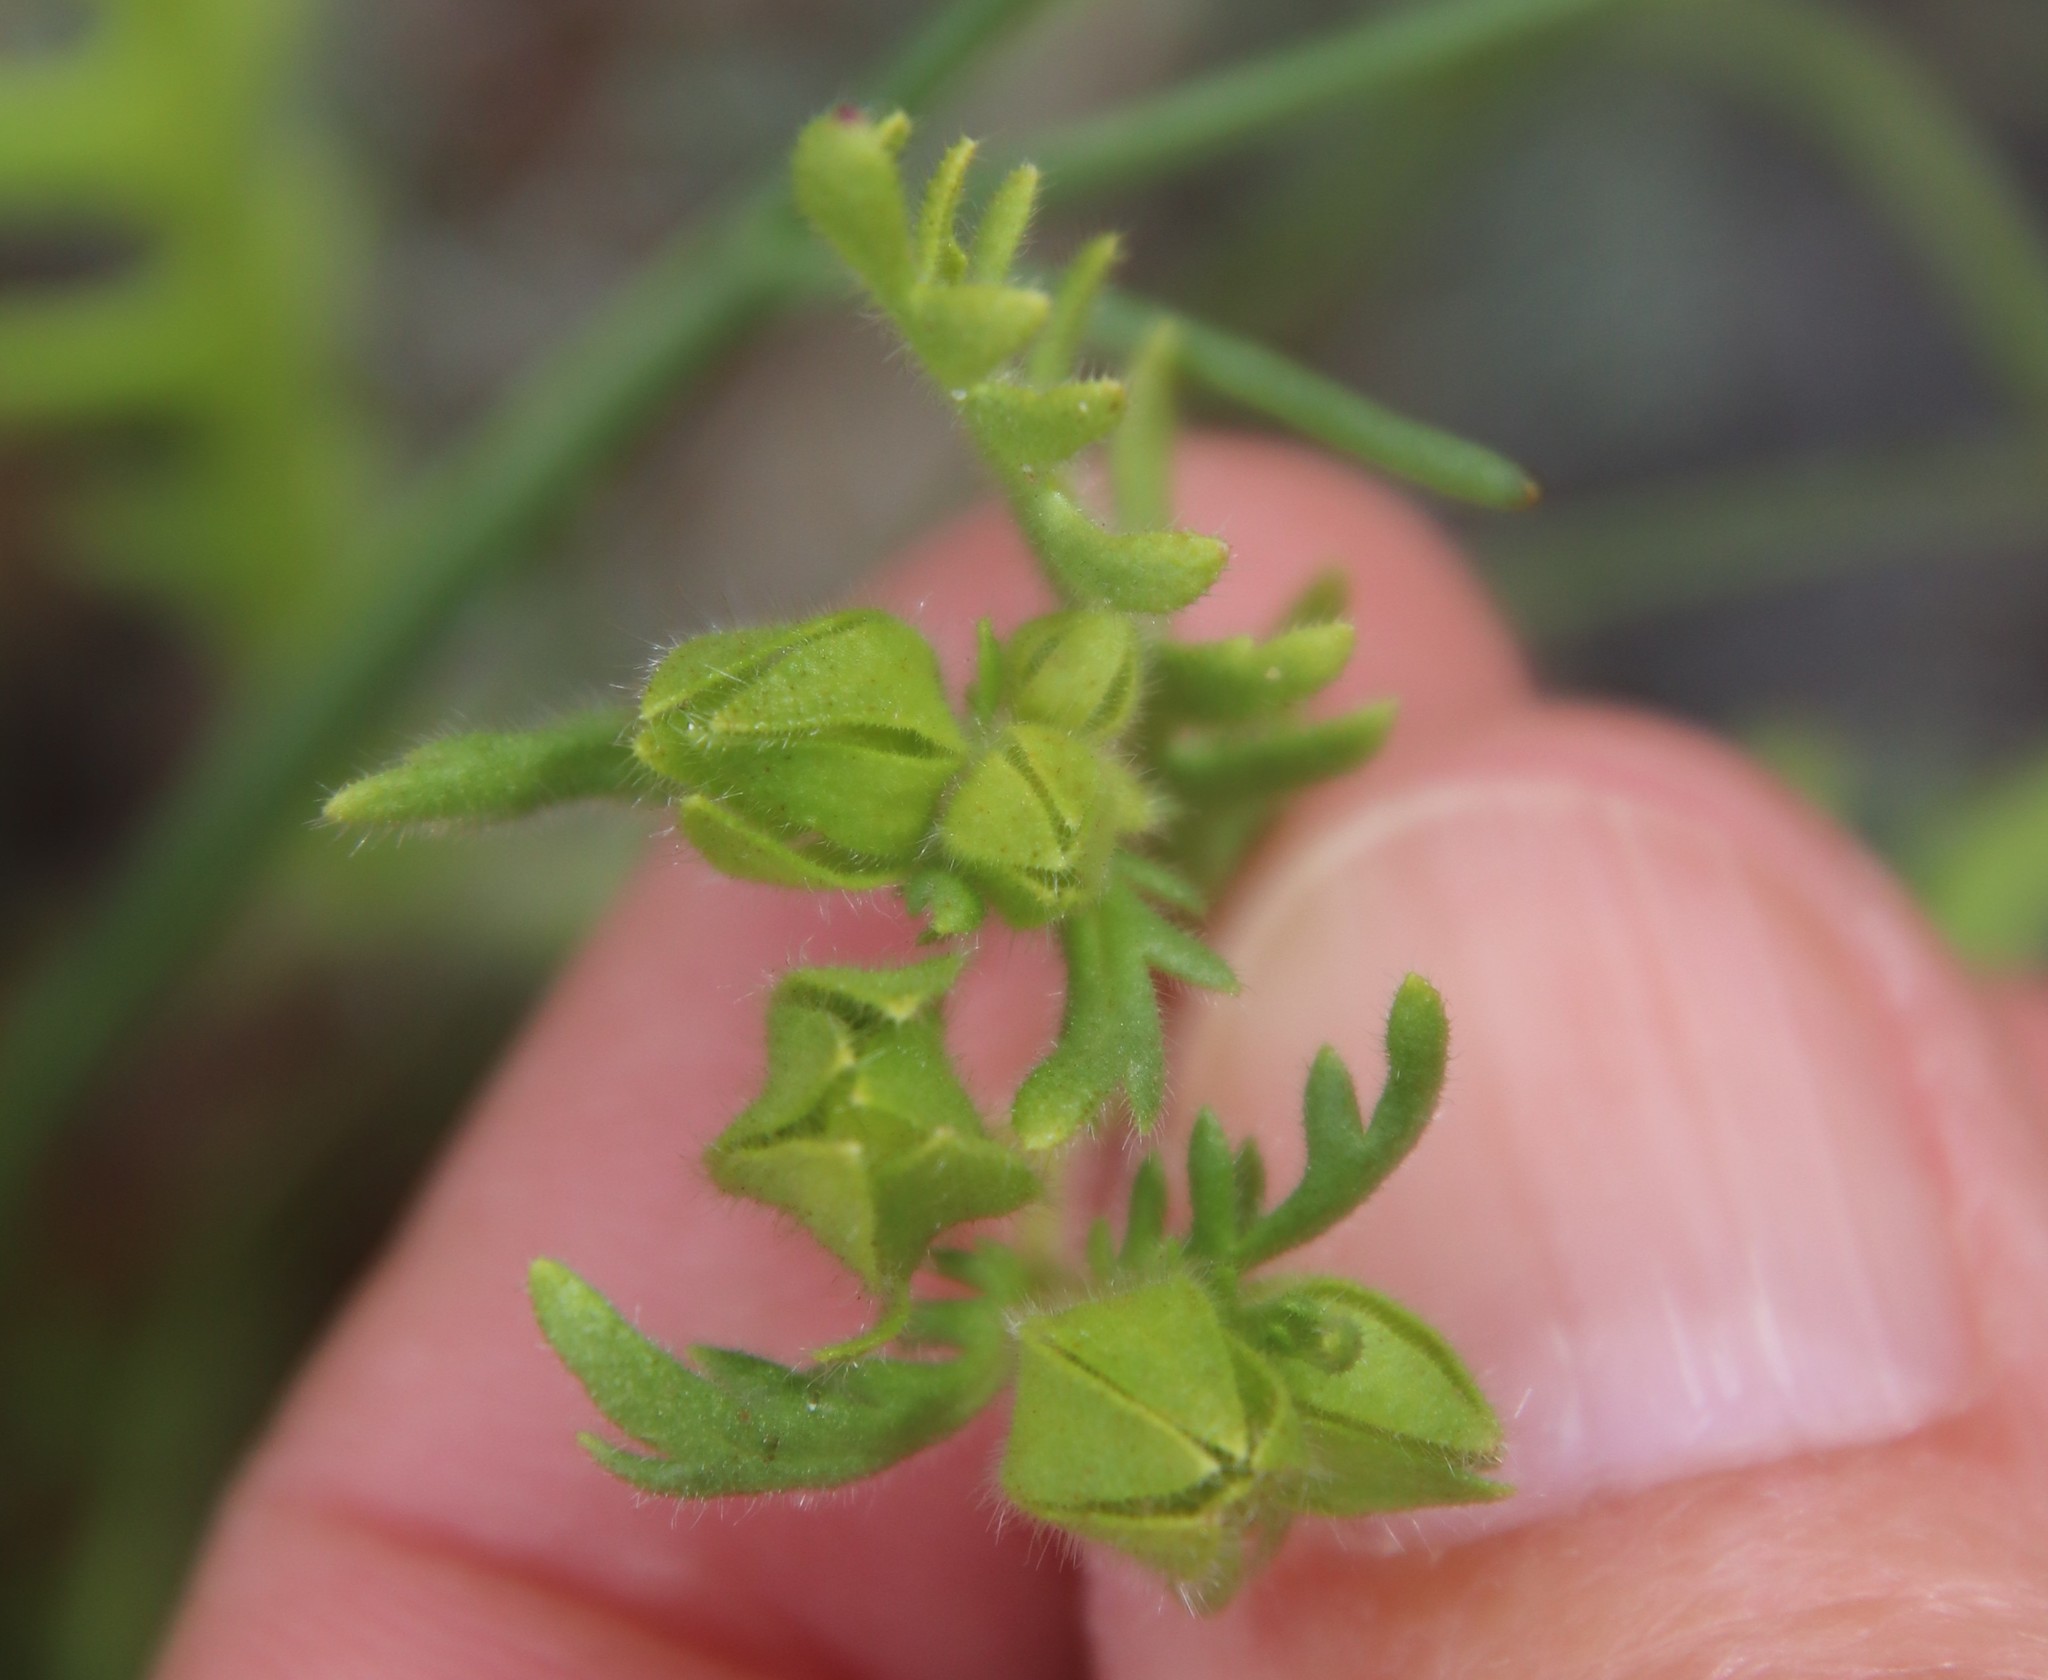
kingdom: Plantae
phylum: Tracheophyta
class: Magnoliopsida
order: Boraginales
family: Hydrophyllaceae
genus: Emmenanthe
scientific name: Emmenanthe penduliflora
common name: Whispering-bells
